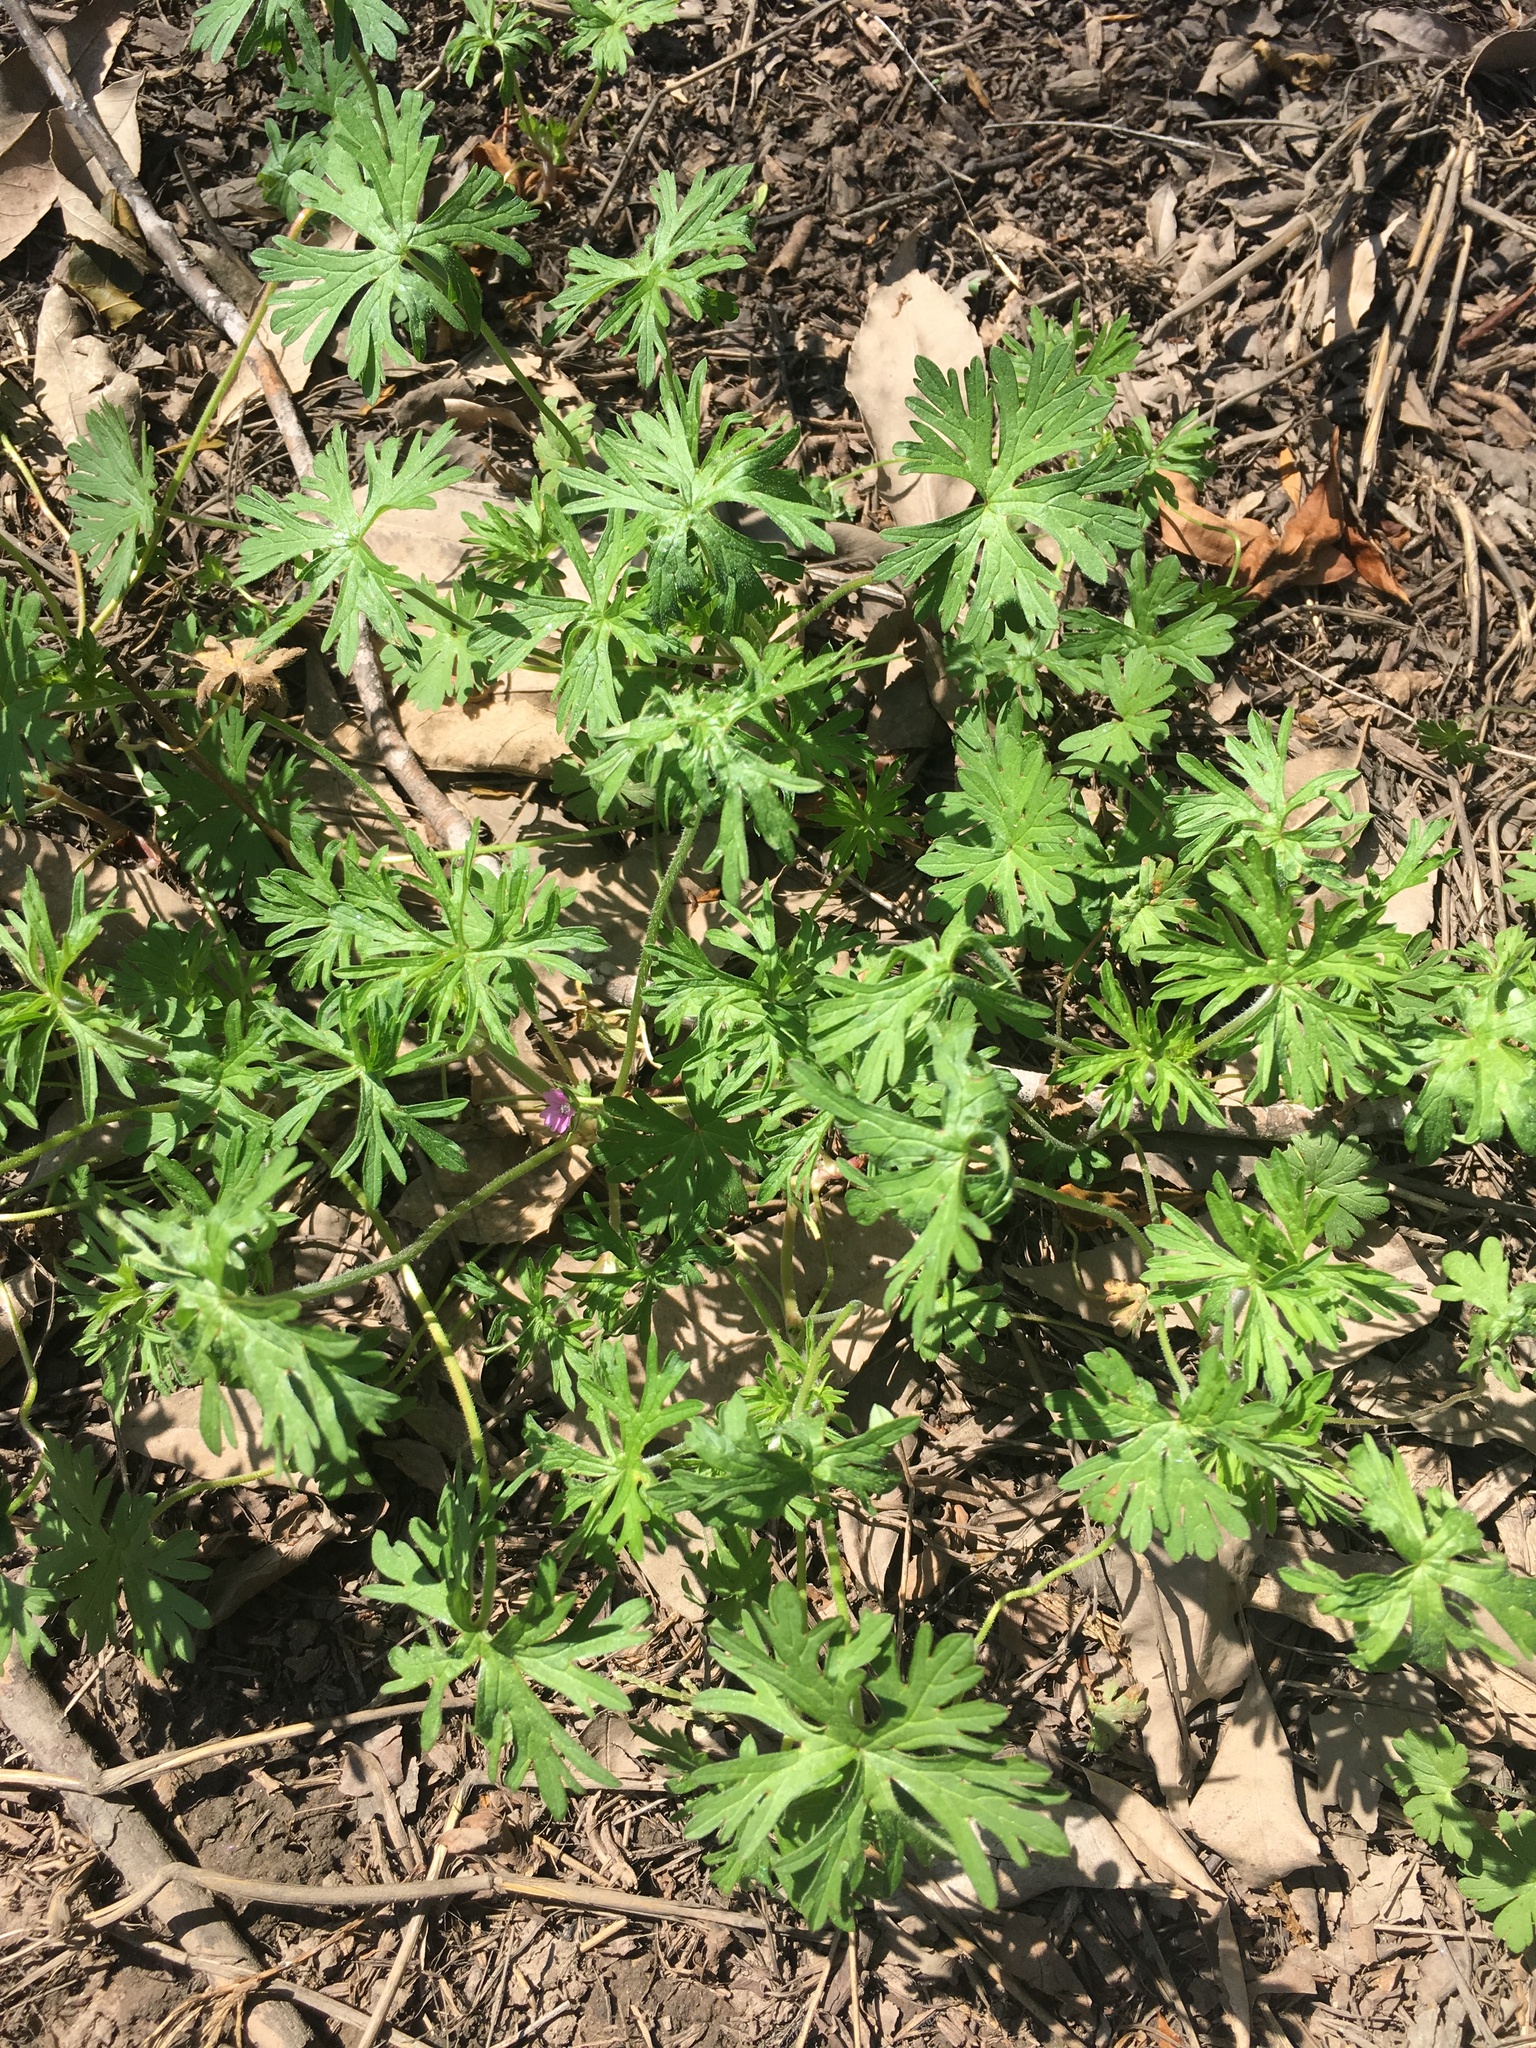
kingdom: Plantae
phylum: Tracheophyta
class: Magnoliopsida
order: Geraniales
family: Geraniaceae
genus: Geranium
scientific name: Geranium dissectum
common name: Cut-leaved crane's-bill
